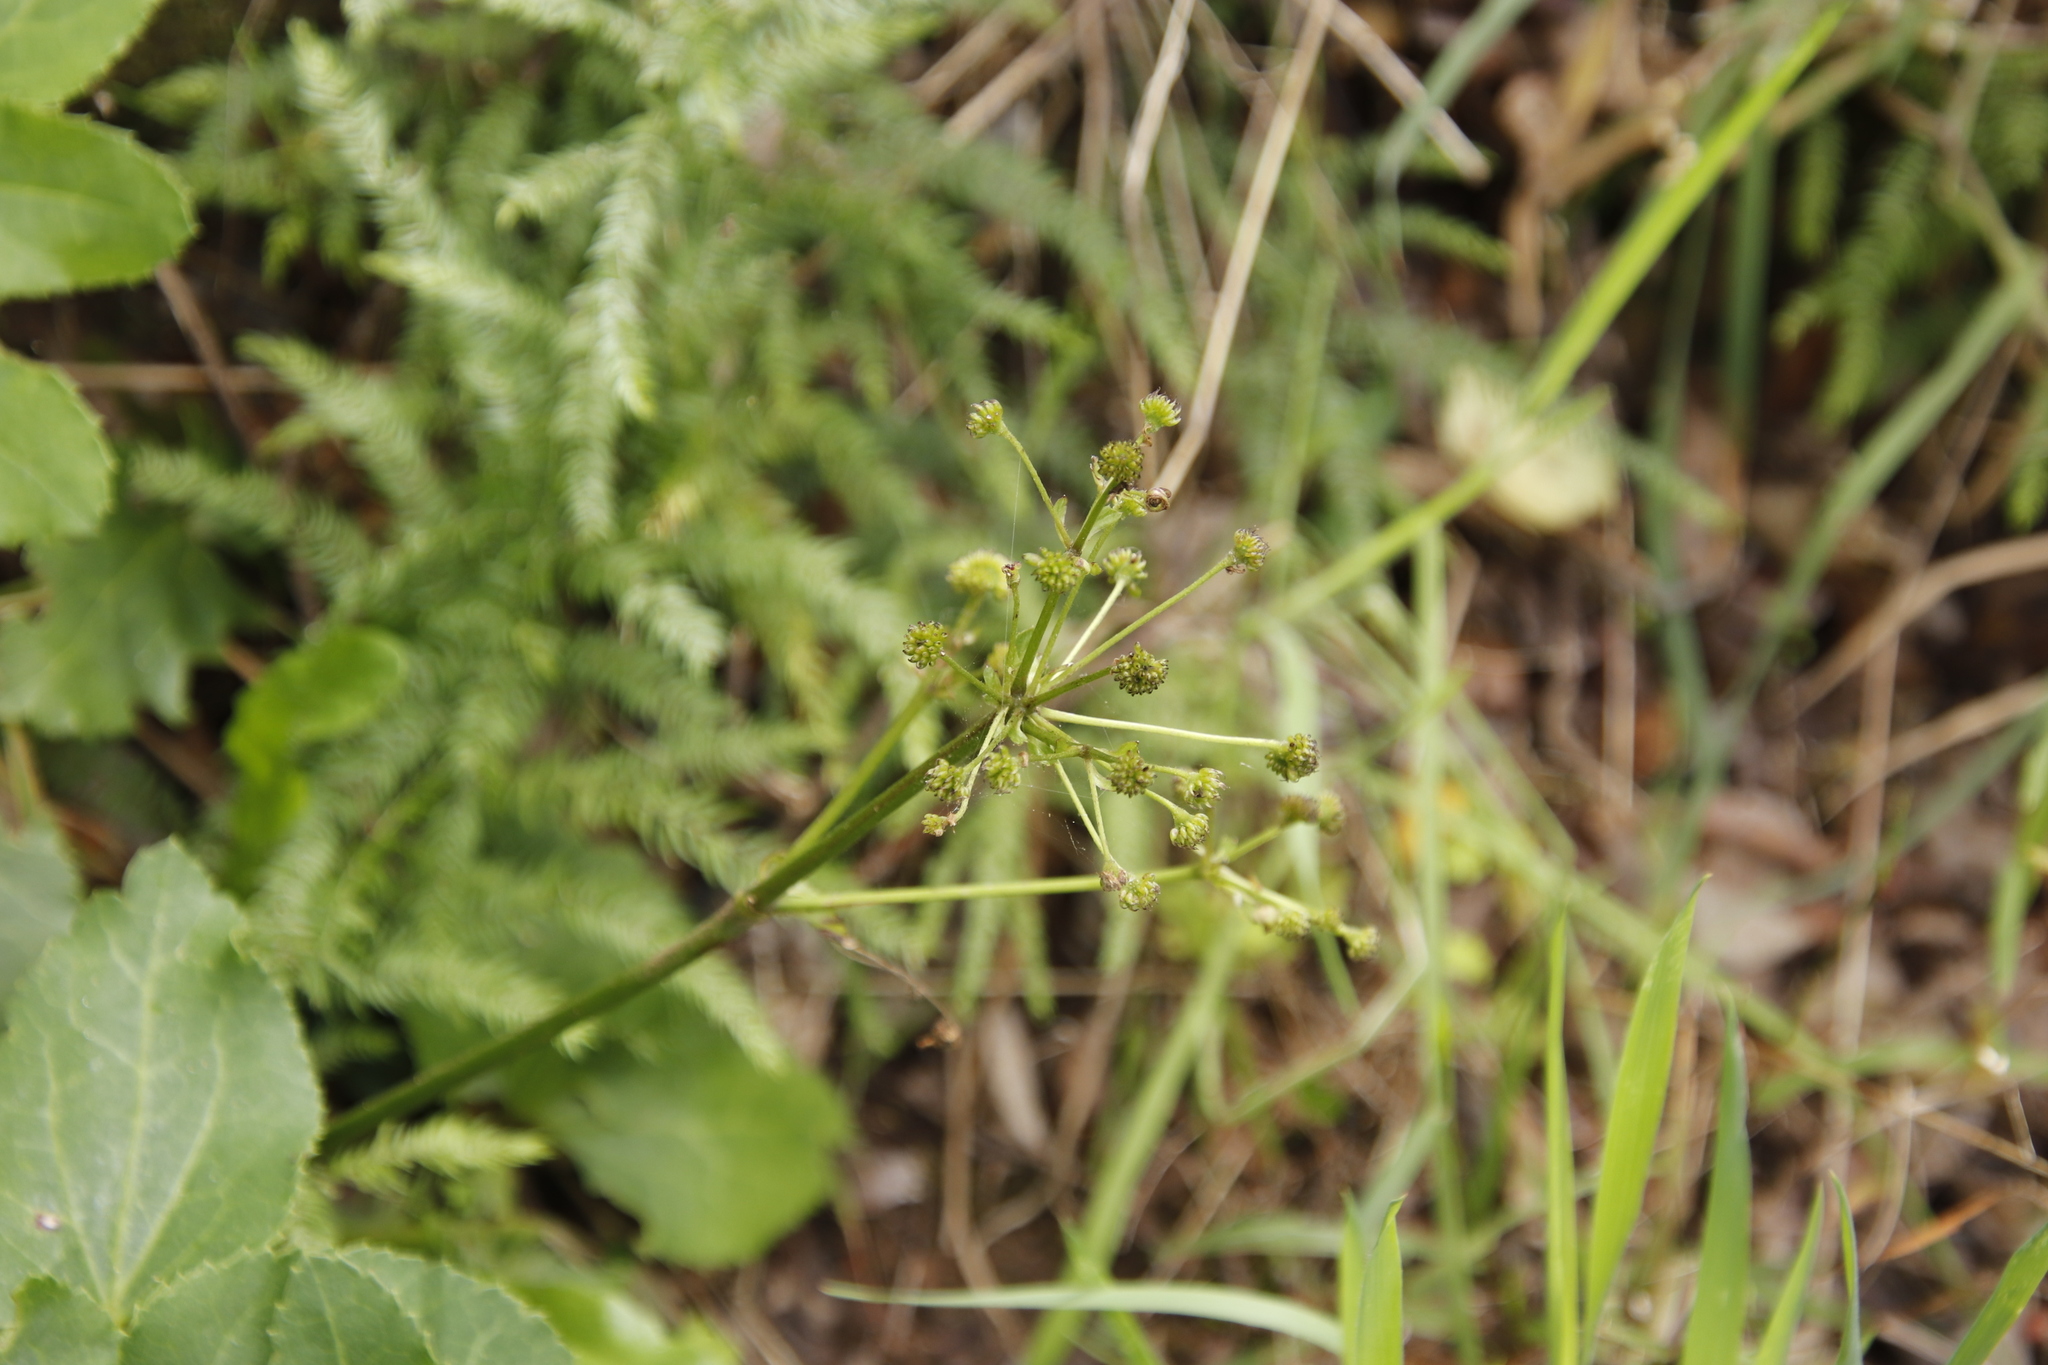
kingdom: Plantae
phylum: Tracheophyta
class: Magnoliopsida
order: Ranunculales
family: Ranunculaceae
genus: Knowltonia
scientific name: Knowltonia vesicatoria
